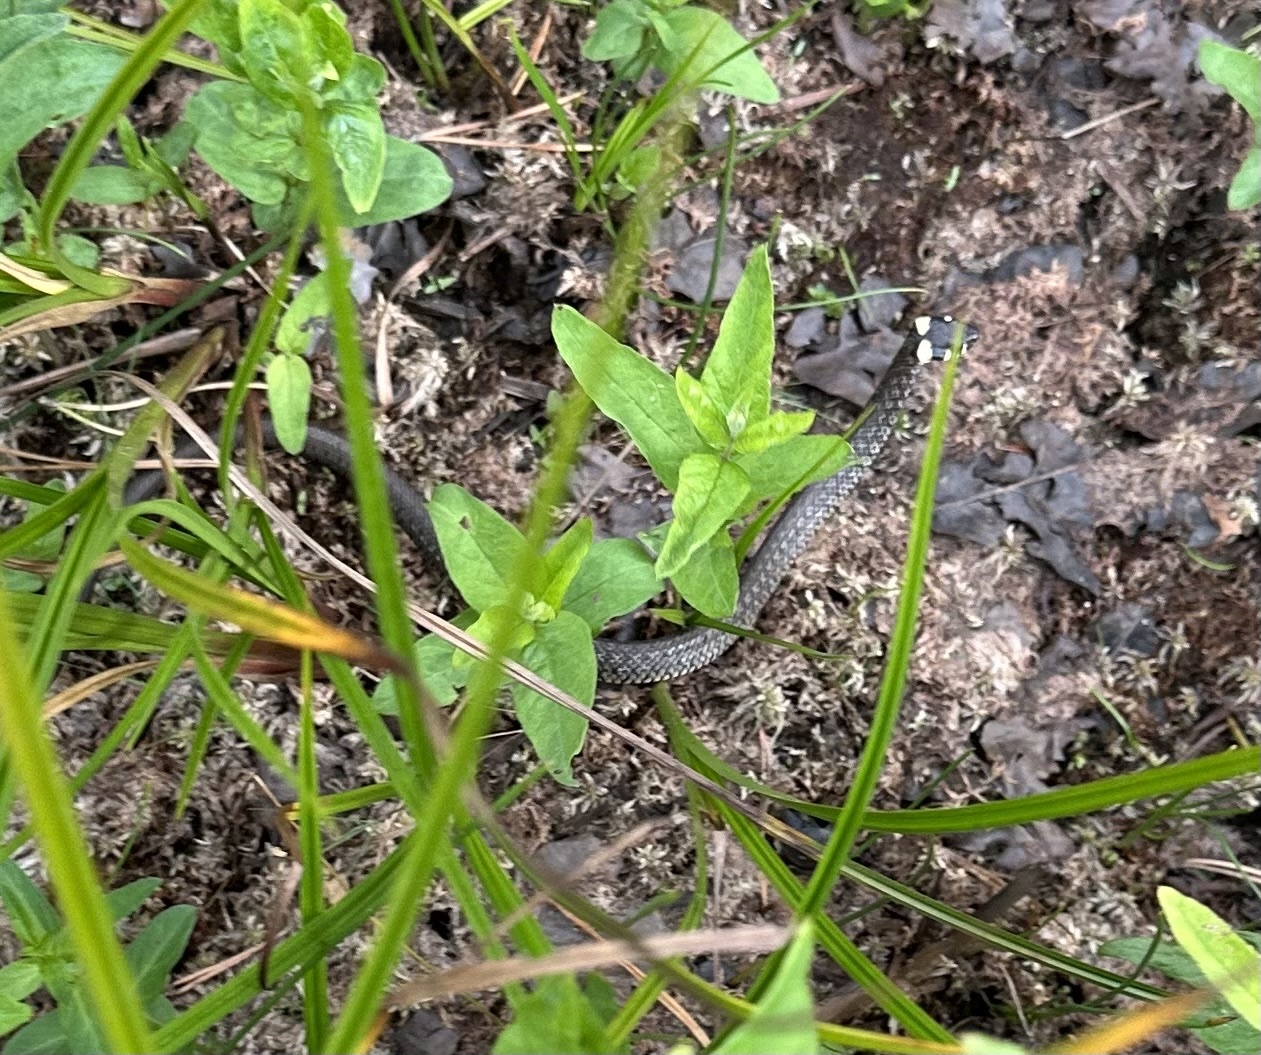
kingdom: Animalia
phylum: Chordata
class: Squamata
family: Colubridae
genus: Natrix
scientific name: Natrix natrix
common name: Grass snake
